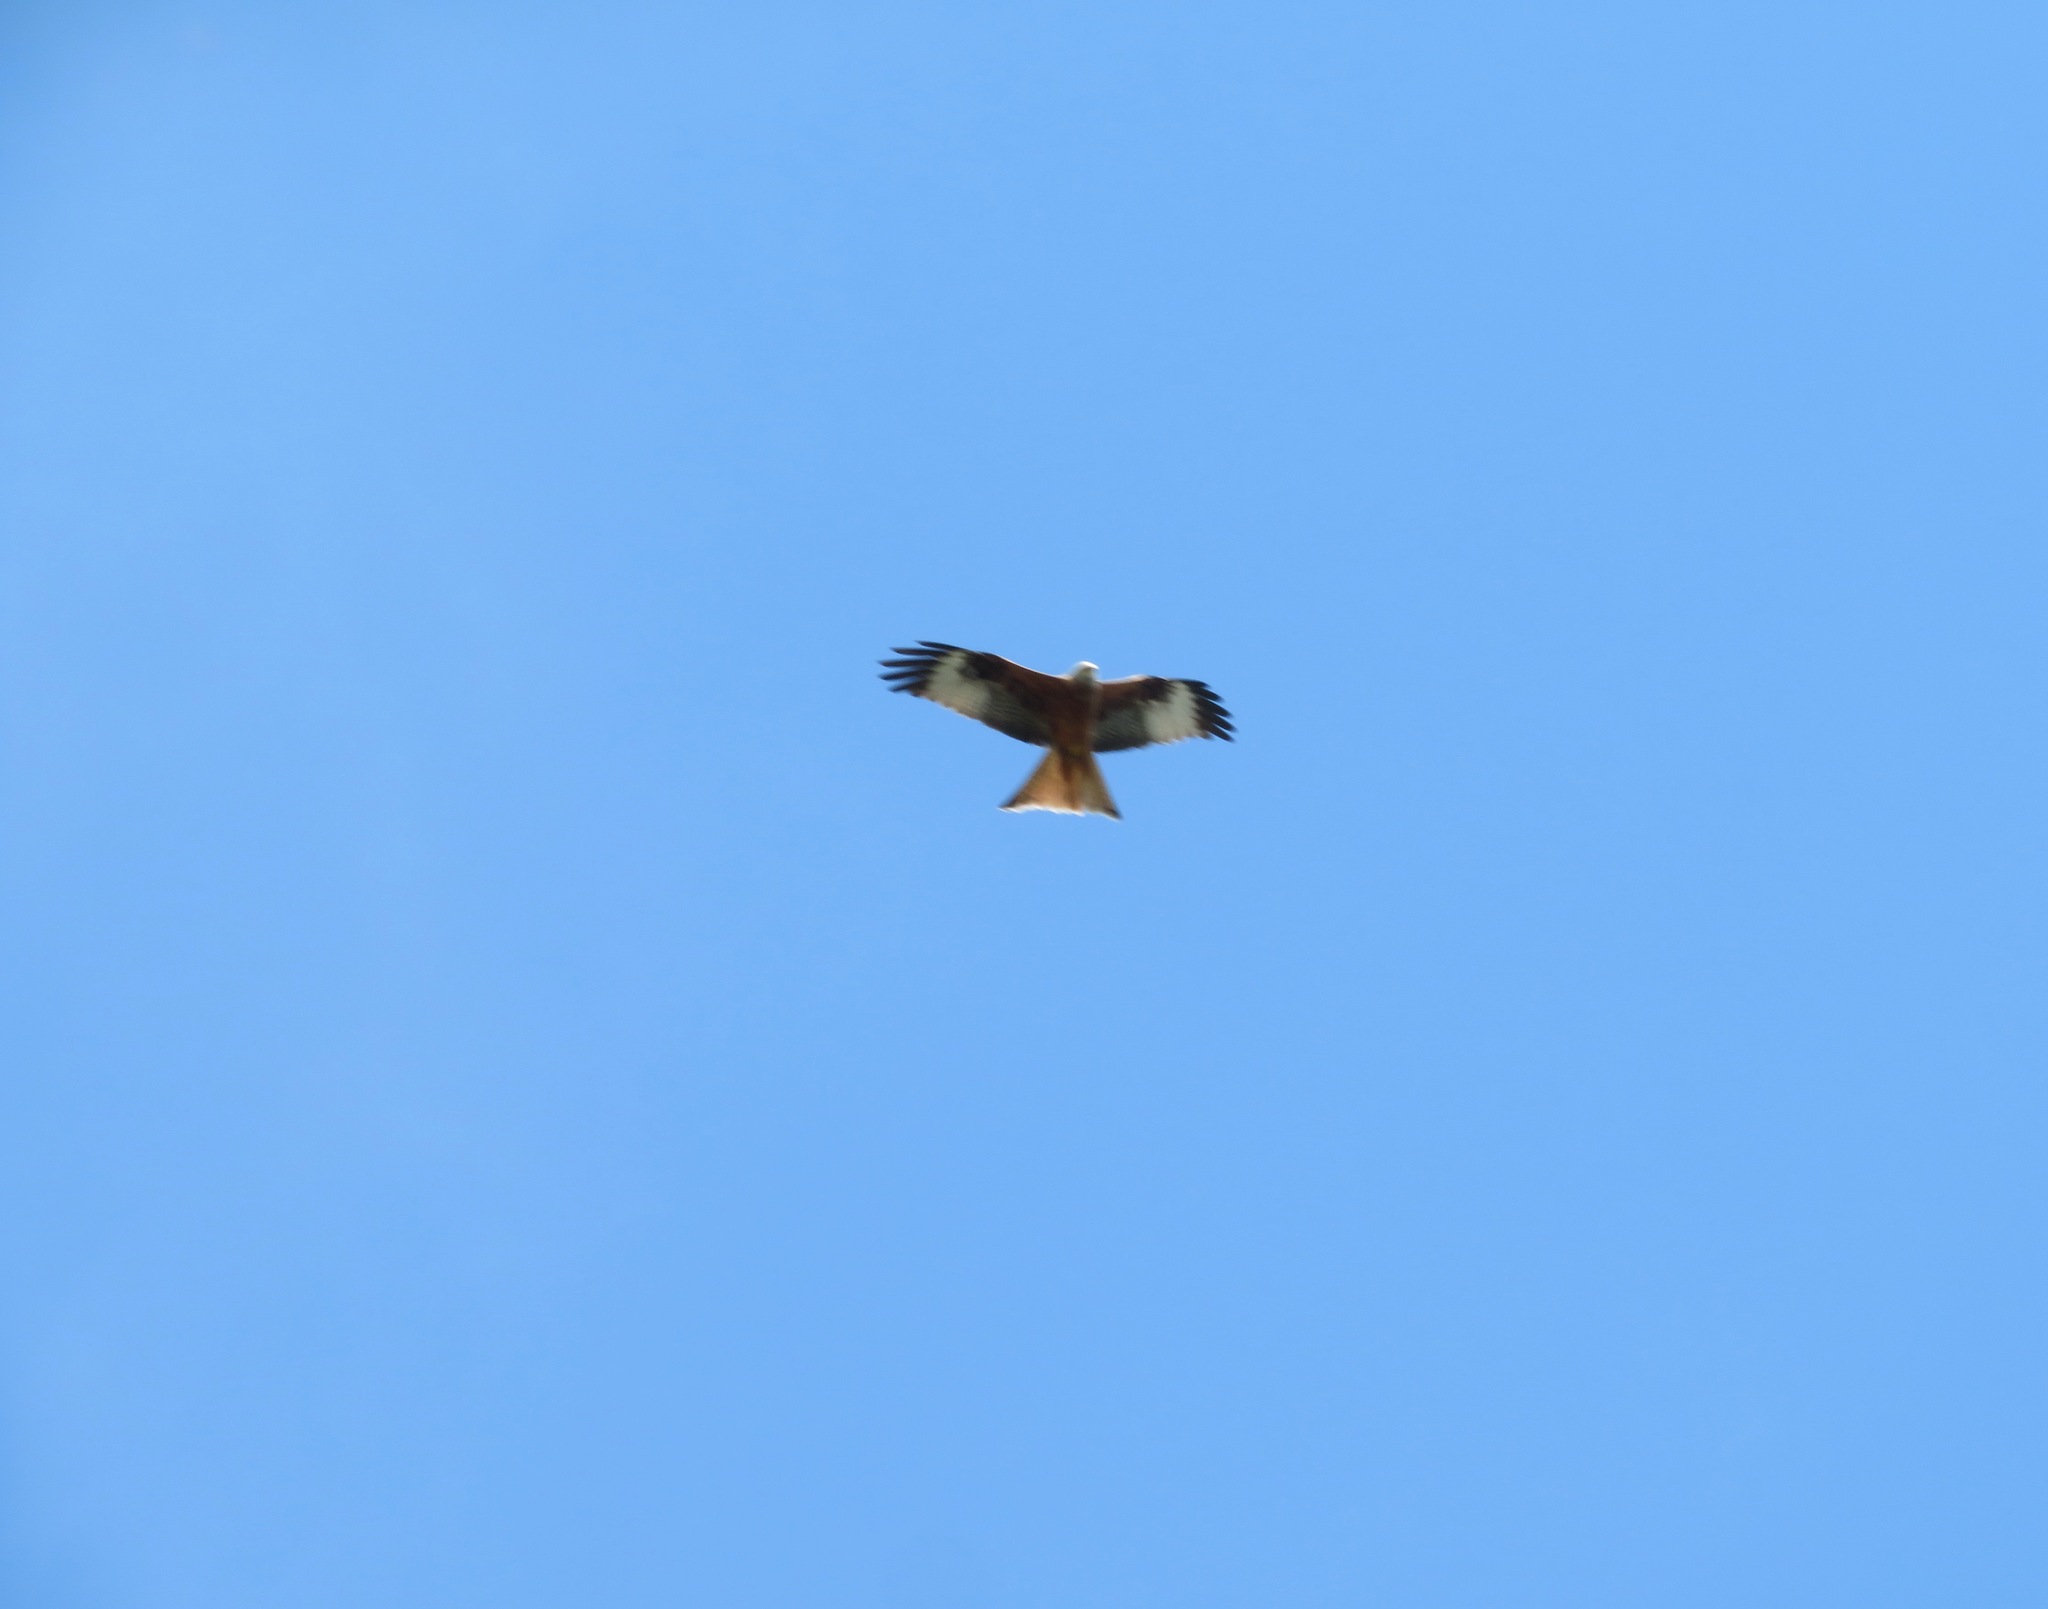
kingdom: Animalia
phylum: Chordata
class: Aves
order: Accipitriformes
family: Accipitridae
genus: Milvus
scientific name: Milvus milvus
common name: Red kite
